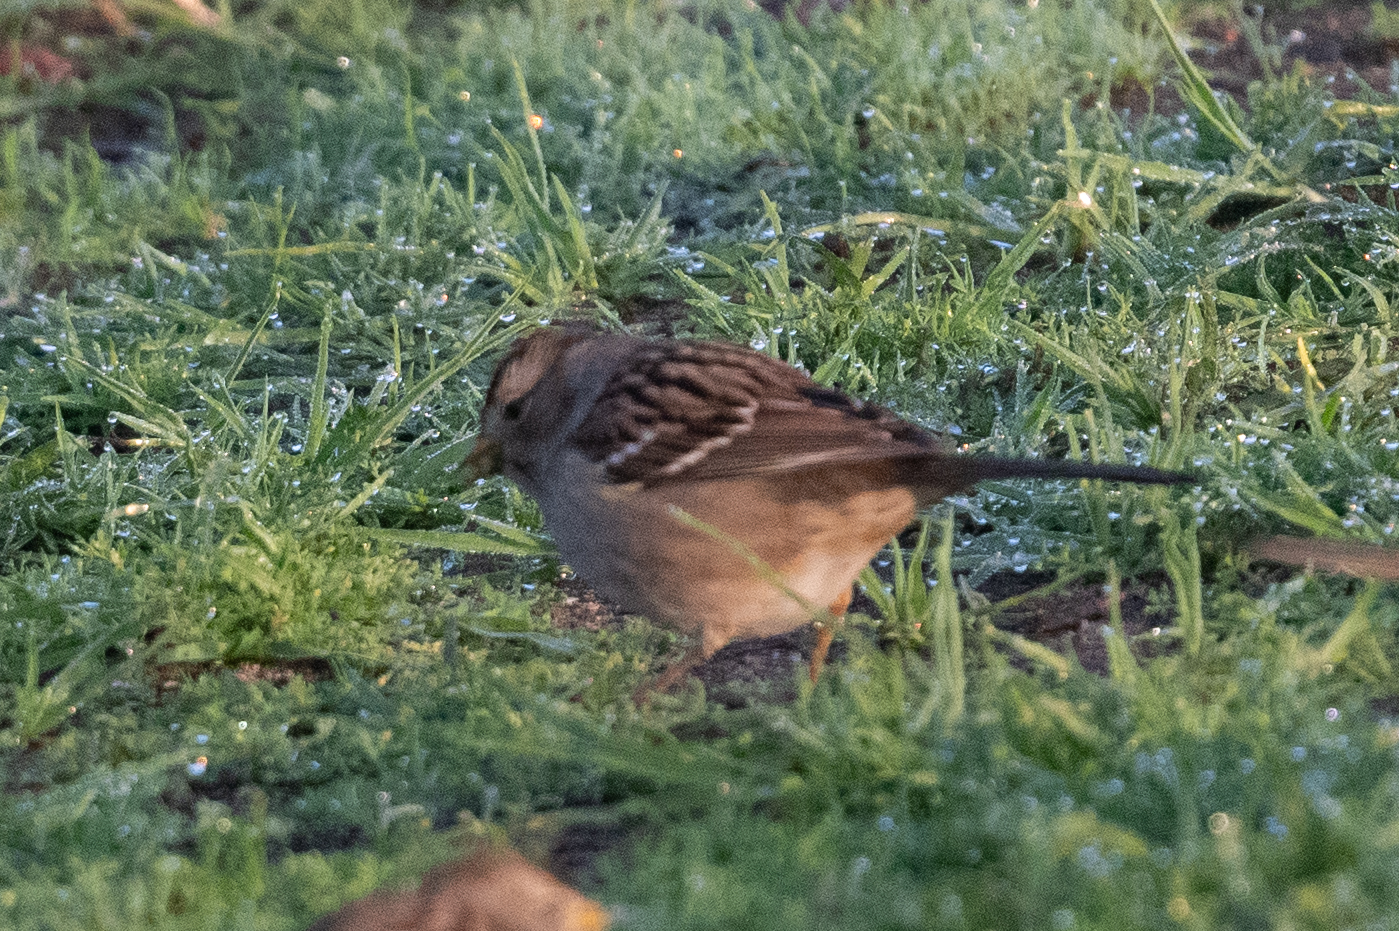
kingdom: Animalia
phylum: Chordata
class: Aves
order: Passeriformes
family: Passerellidae
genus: Zonotrichia
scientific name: Zonotrichia atricapilla
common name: Golden-crowned sparrow
